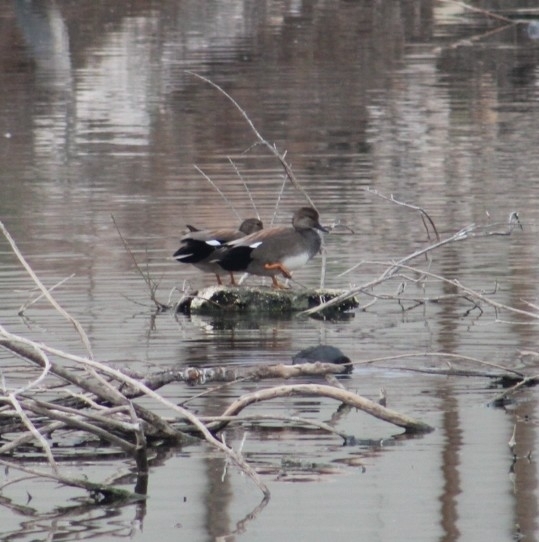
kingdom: Animalia
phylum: Chordata
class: Aves
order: Anseriformes
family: Anatidae
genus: Mareca
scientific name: Mareca strepera
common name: Gadwall
